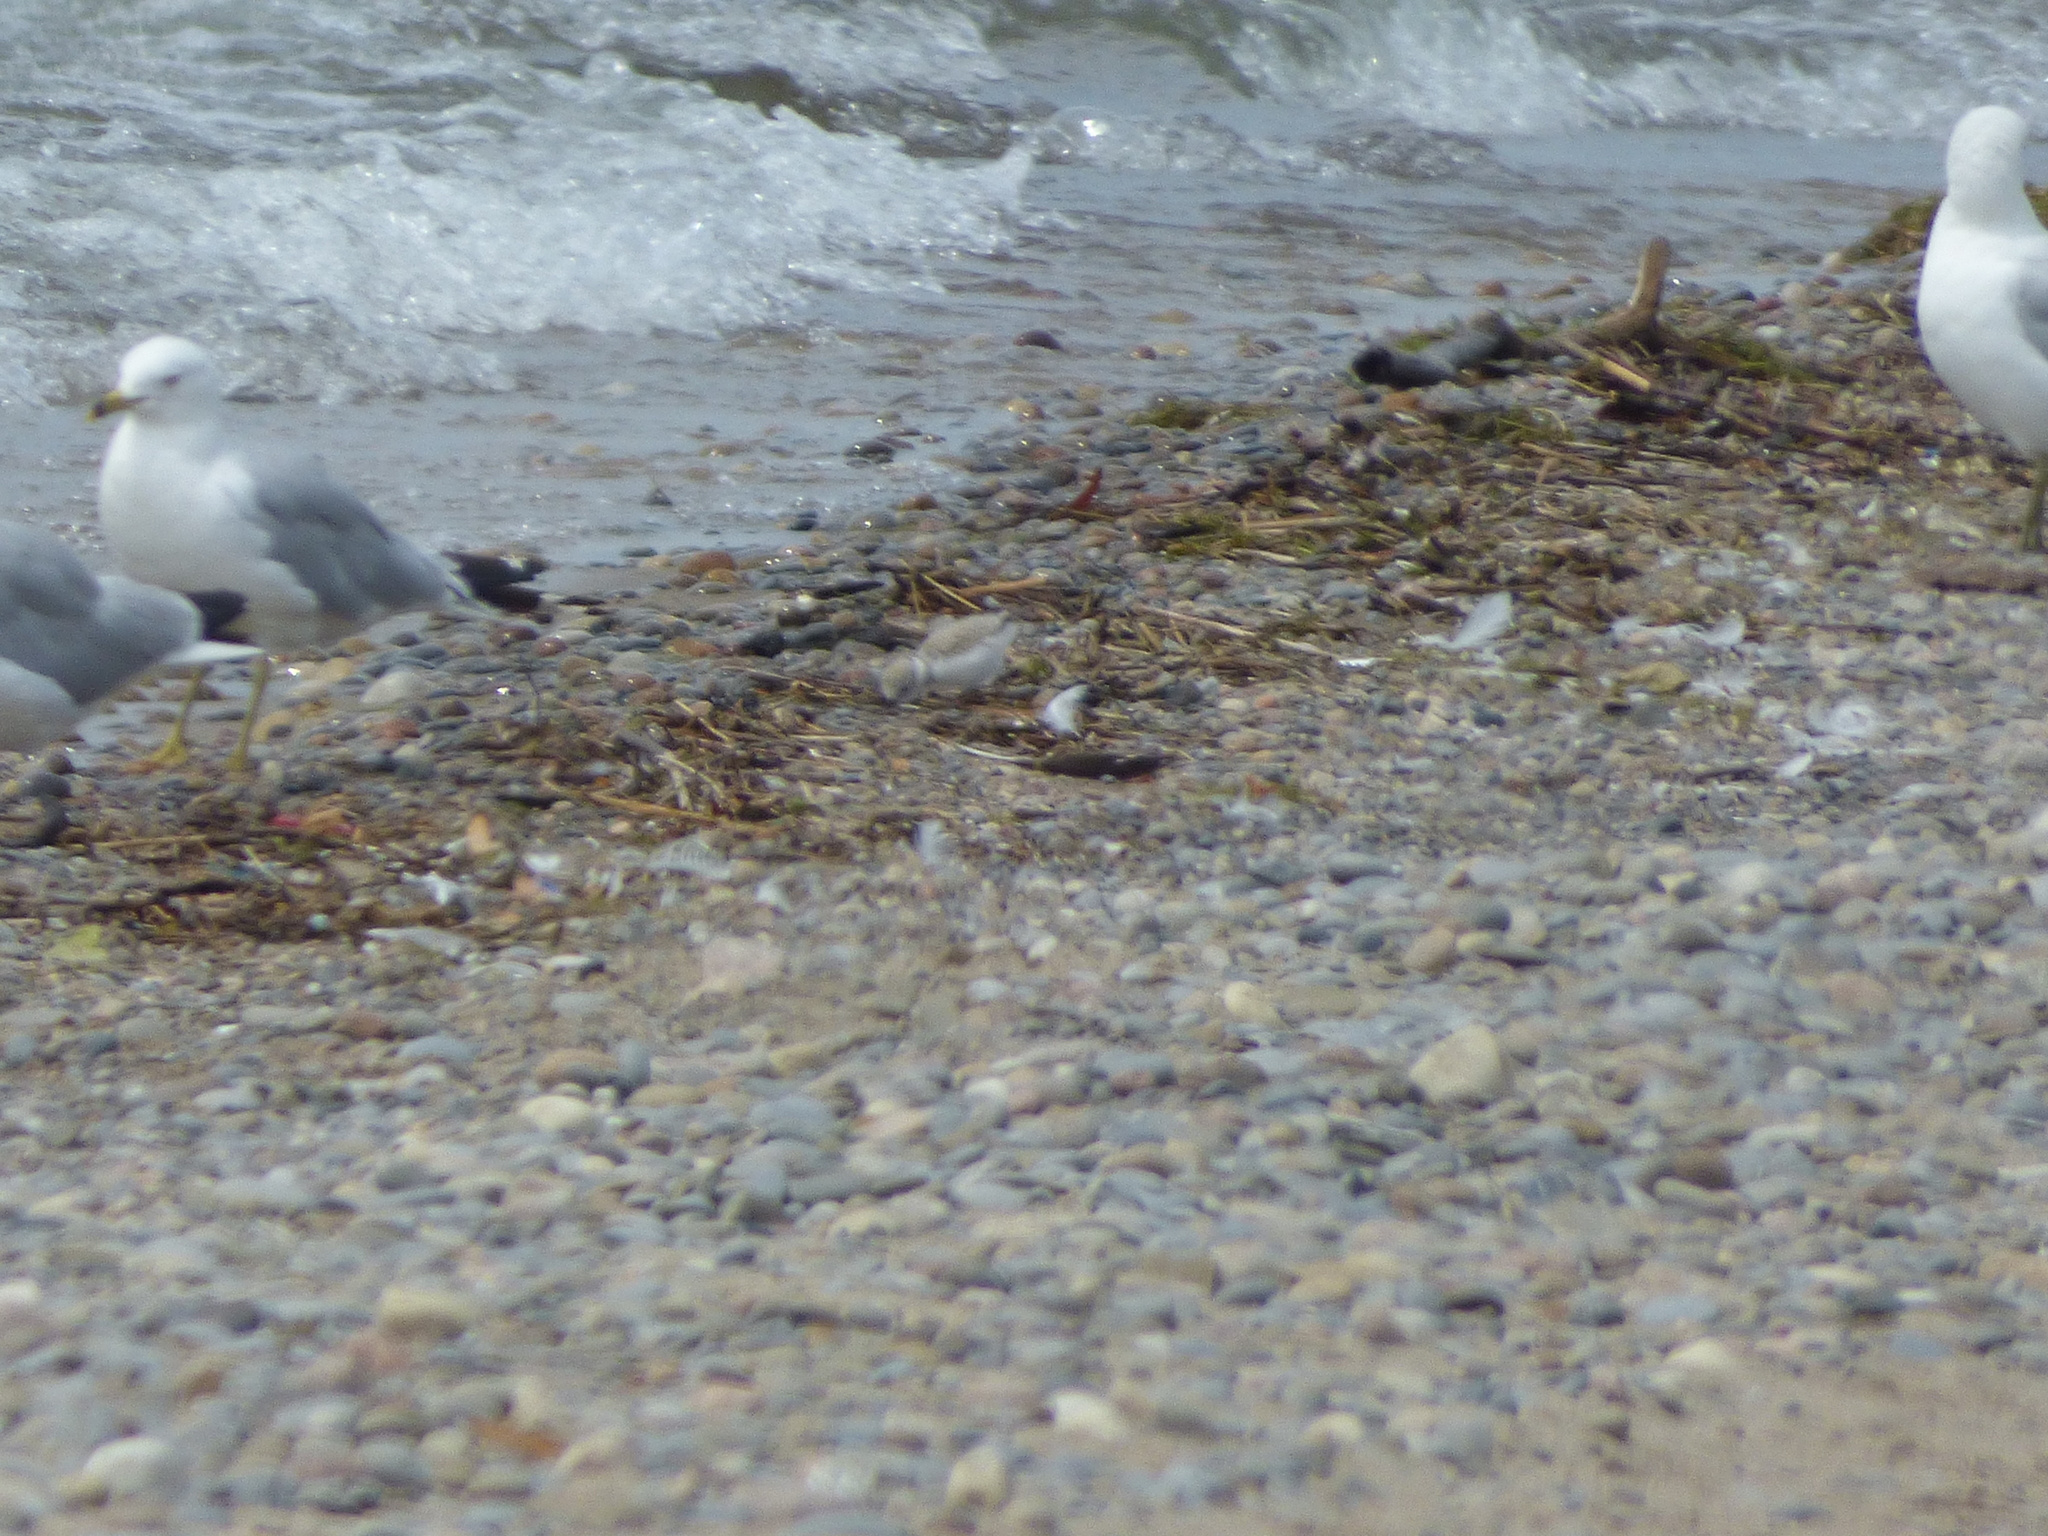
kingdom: Animalia
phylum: Chordata
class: Aves
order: Charadriiformes
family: Charadriidae
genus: Charadrius
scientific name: Charadrius melodus
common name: Piping plover
